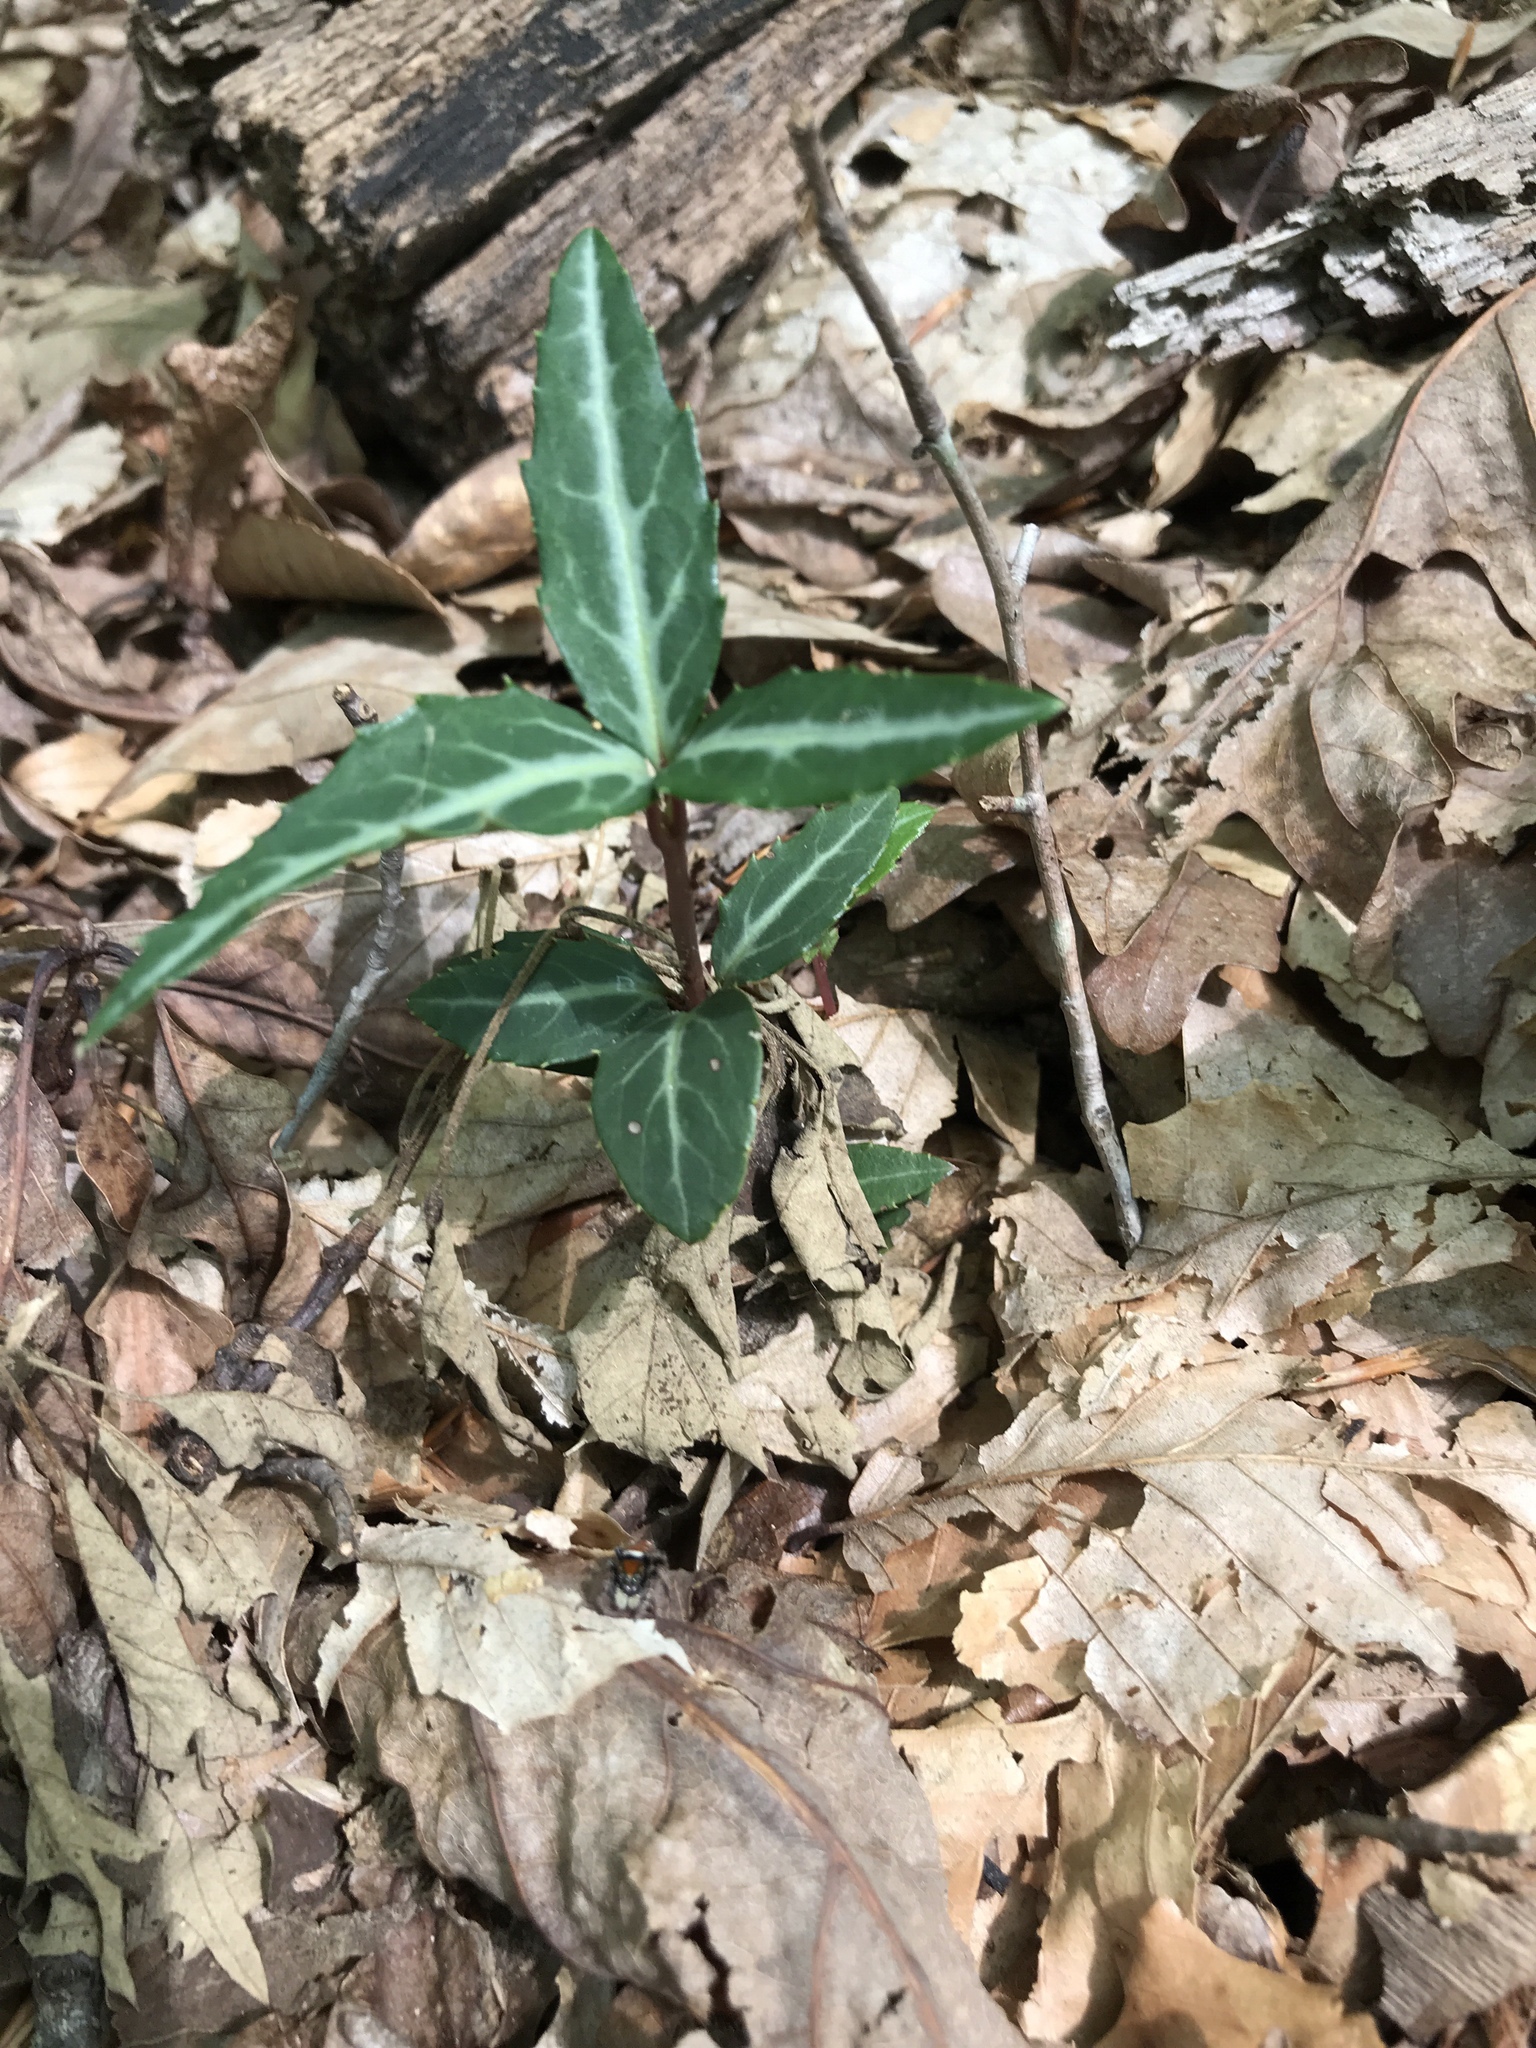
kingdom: Plantae
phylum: Tracheophyta
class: Magnoliopsida
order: Ericales
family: Ericaceae
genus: Chimaphila
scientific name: Chimaphila maculata
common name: Spotted pipsissewa
